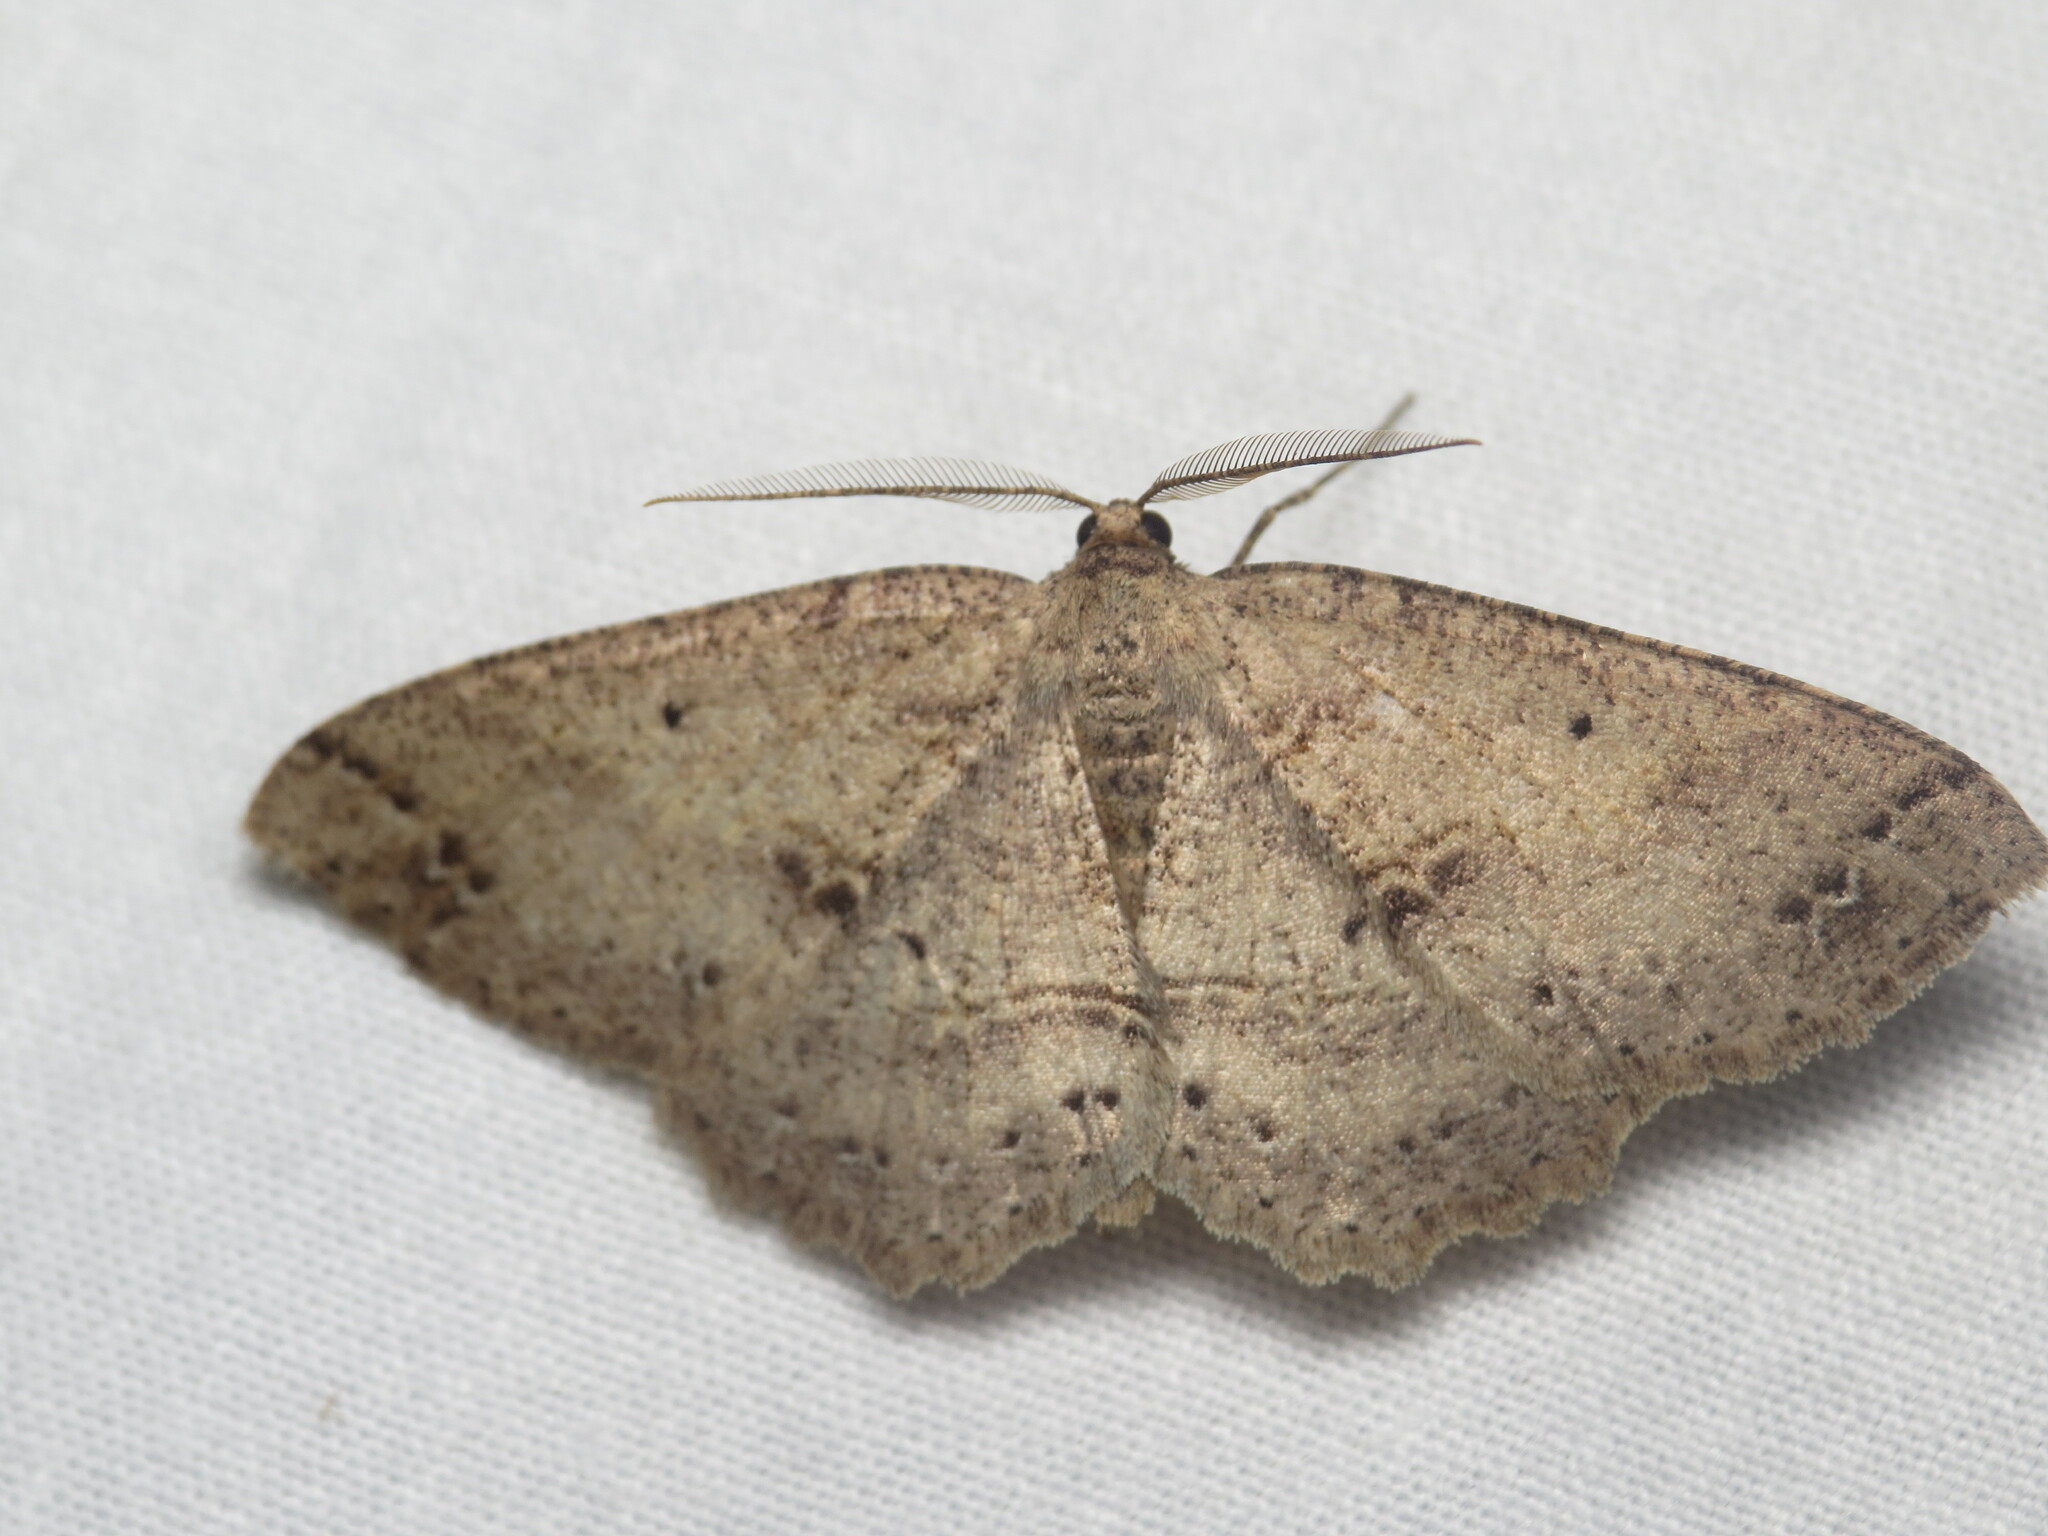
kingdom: Animalia
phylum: Arthropoda
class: Insecta
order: Lepidoptera
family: Geometridae
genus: Melanolophia
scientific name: Melanolophia signataria
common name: Signate melanolophia
